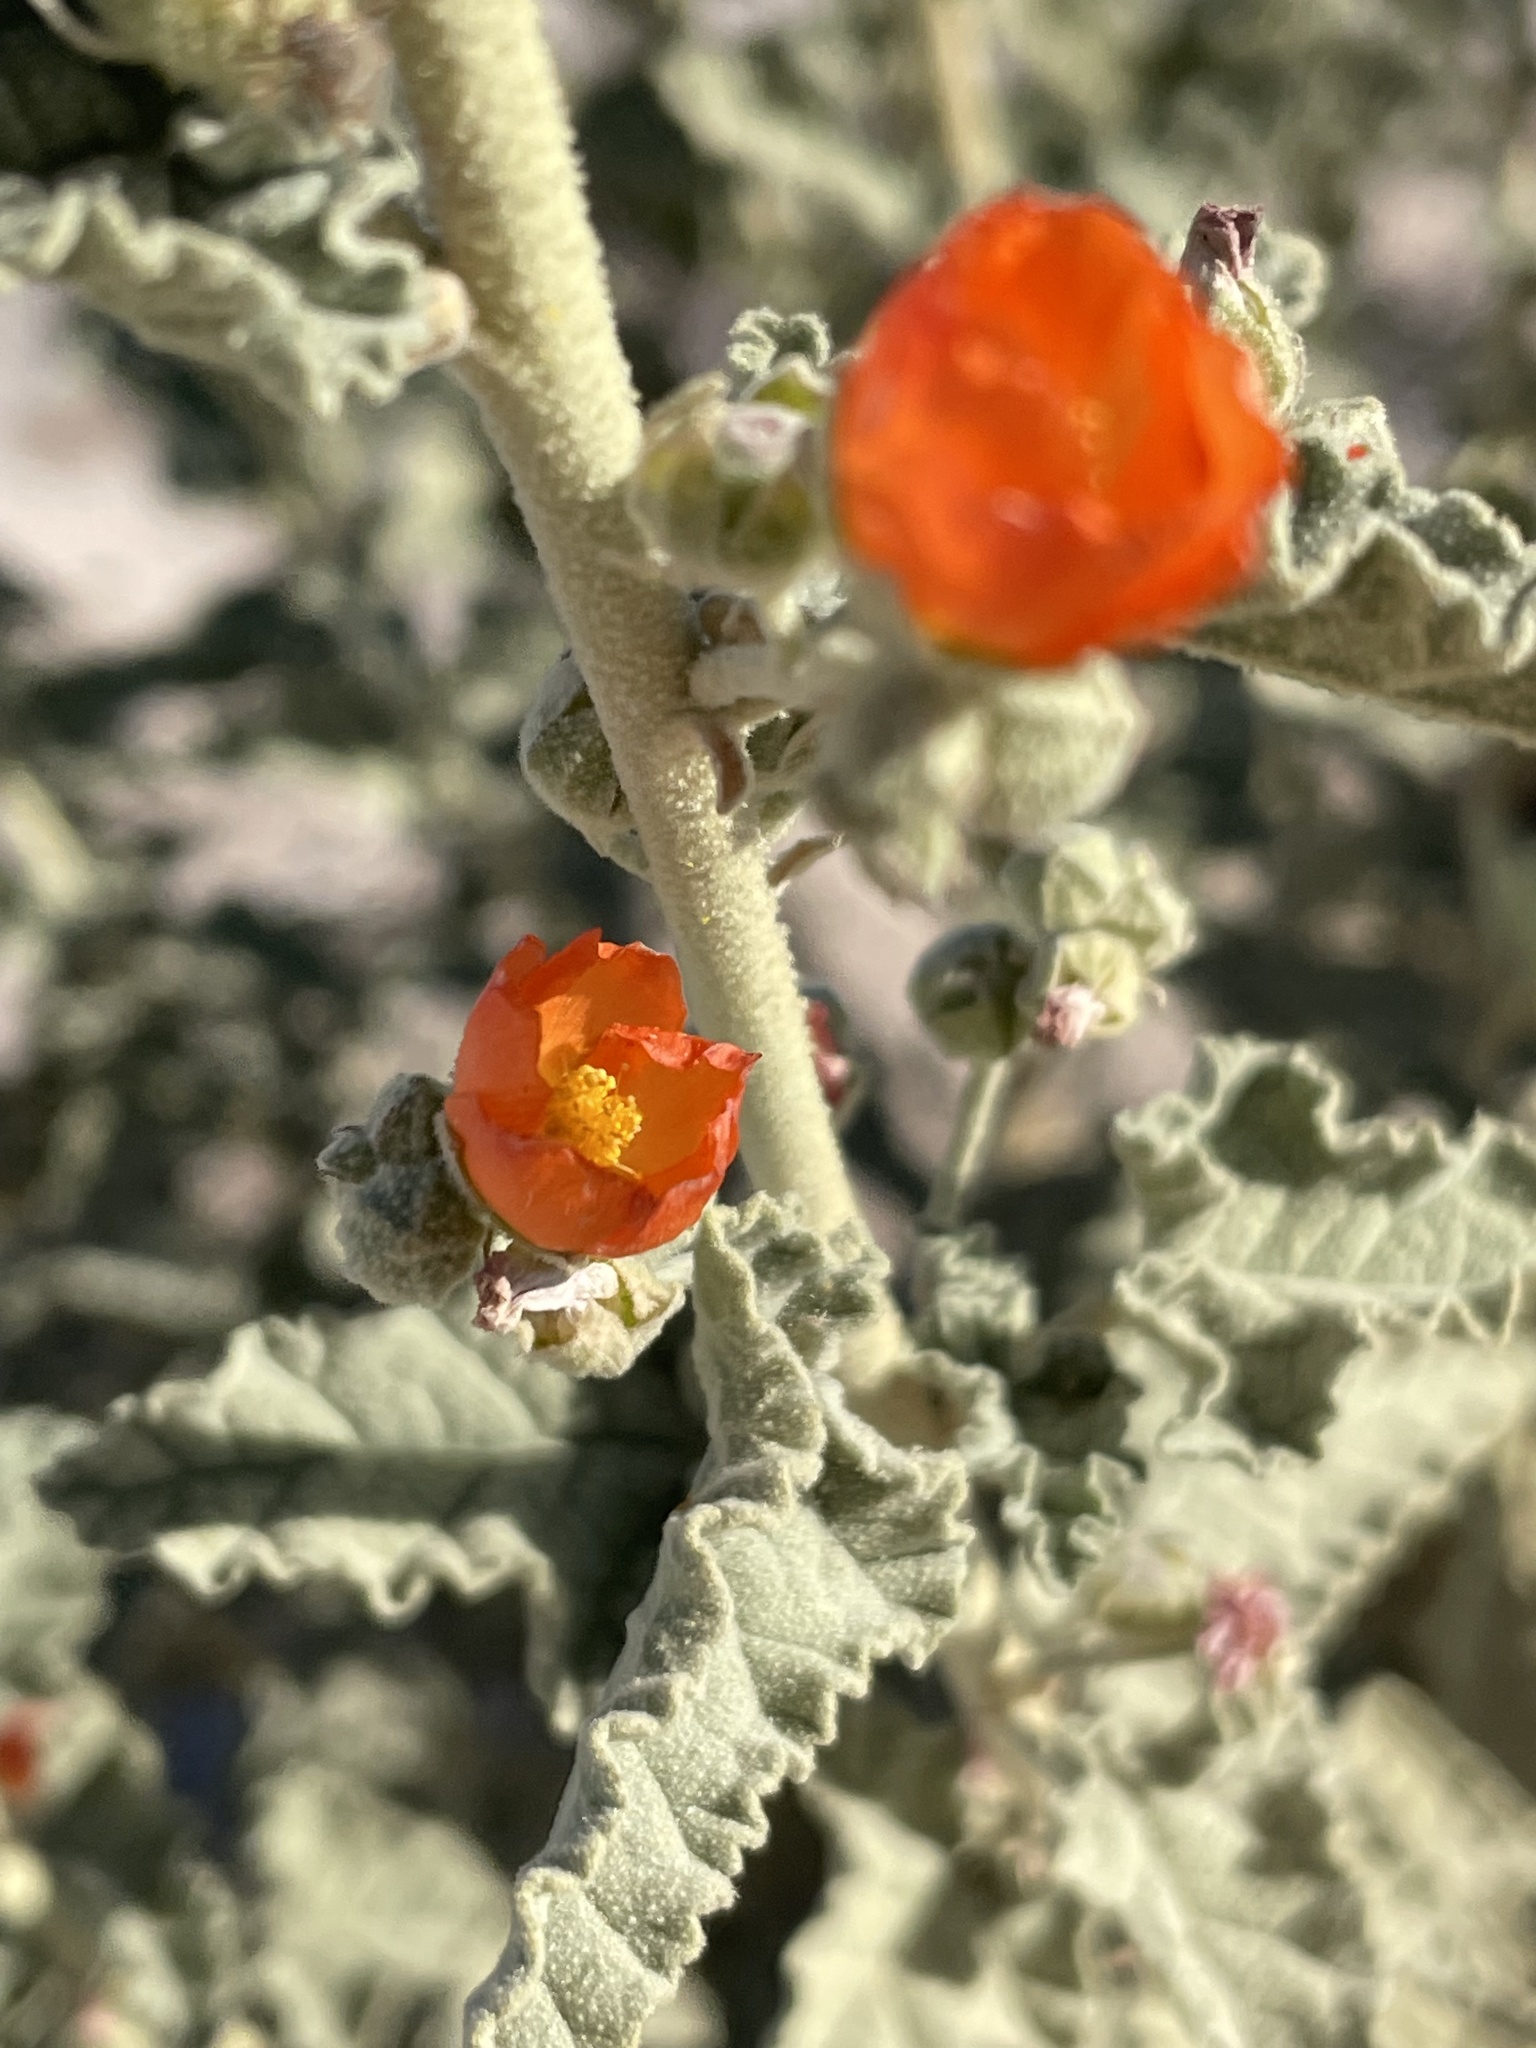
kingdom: Plantae
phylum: Tracheophyta
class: Magnoliopsida
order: Malvales
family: Malvaceae
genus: Sphaeralcea
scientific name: Sphaeralcea ambigua
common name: Apricot globe-mallow
